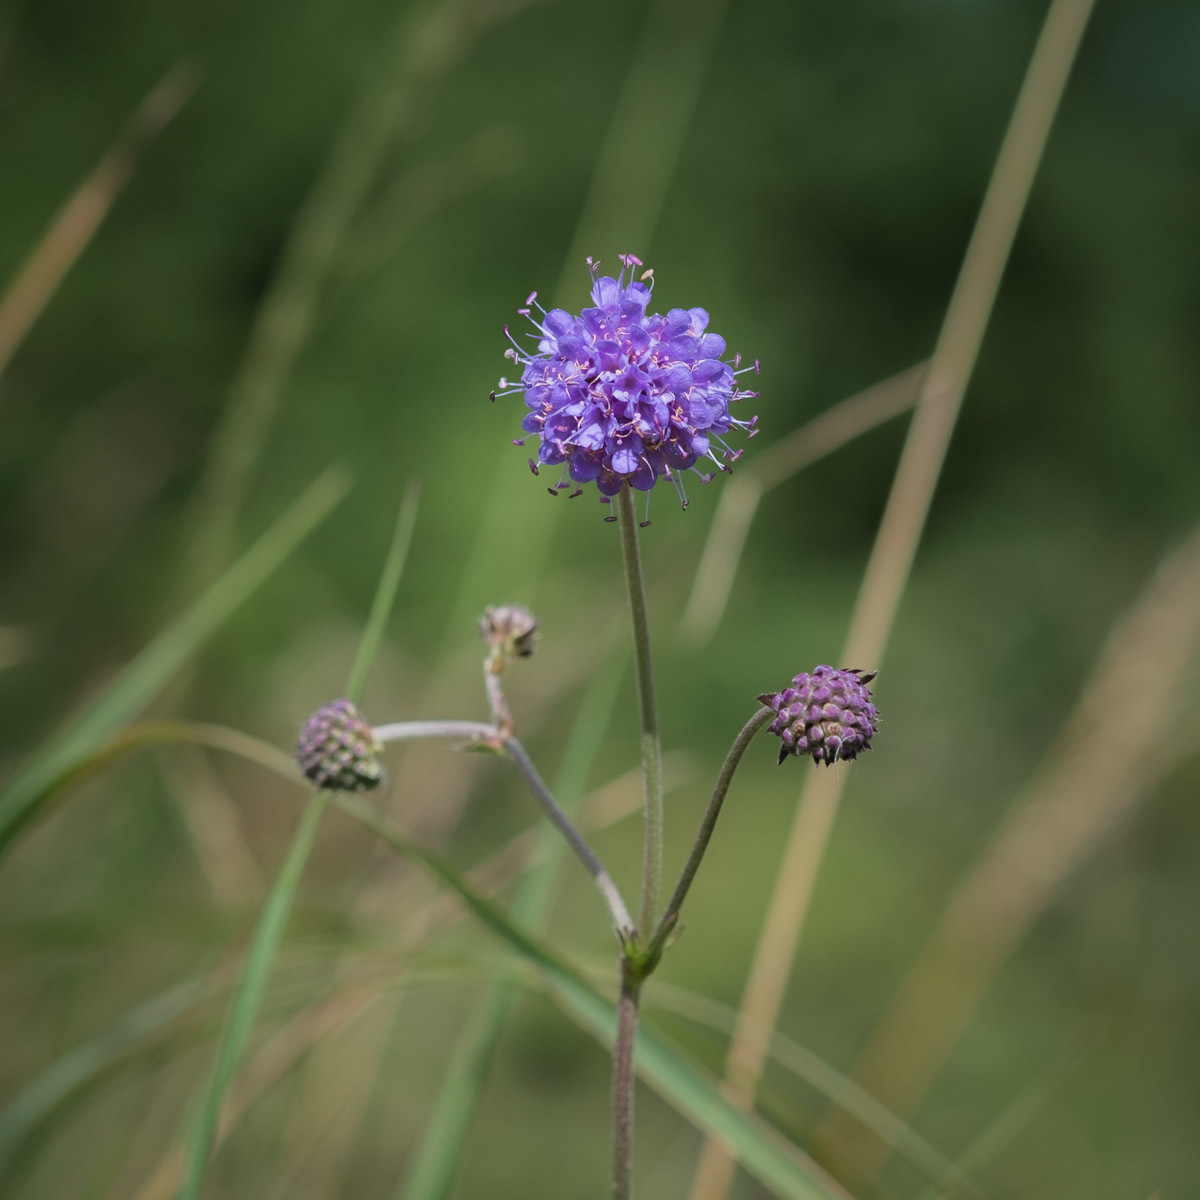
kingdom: Plantae
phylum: Tracheophyta
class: Magnoliopsida
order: Dipsacales
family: Caprifoliaceae
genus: Succisa
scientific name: Succisa pratensis
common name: Devil's-bit
